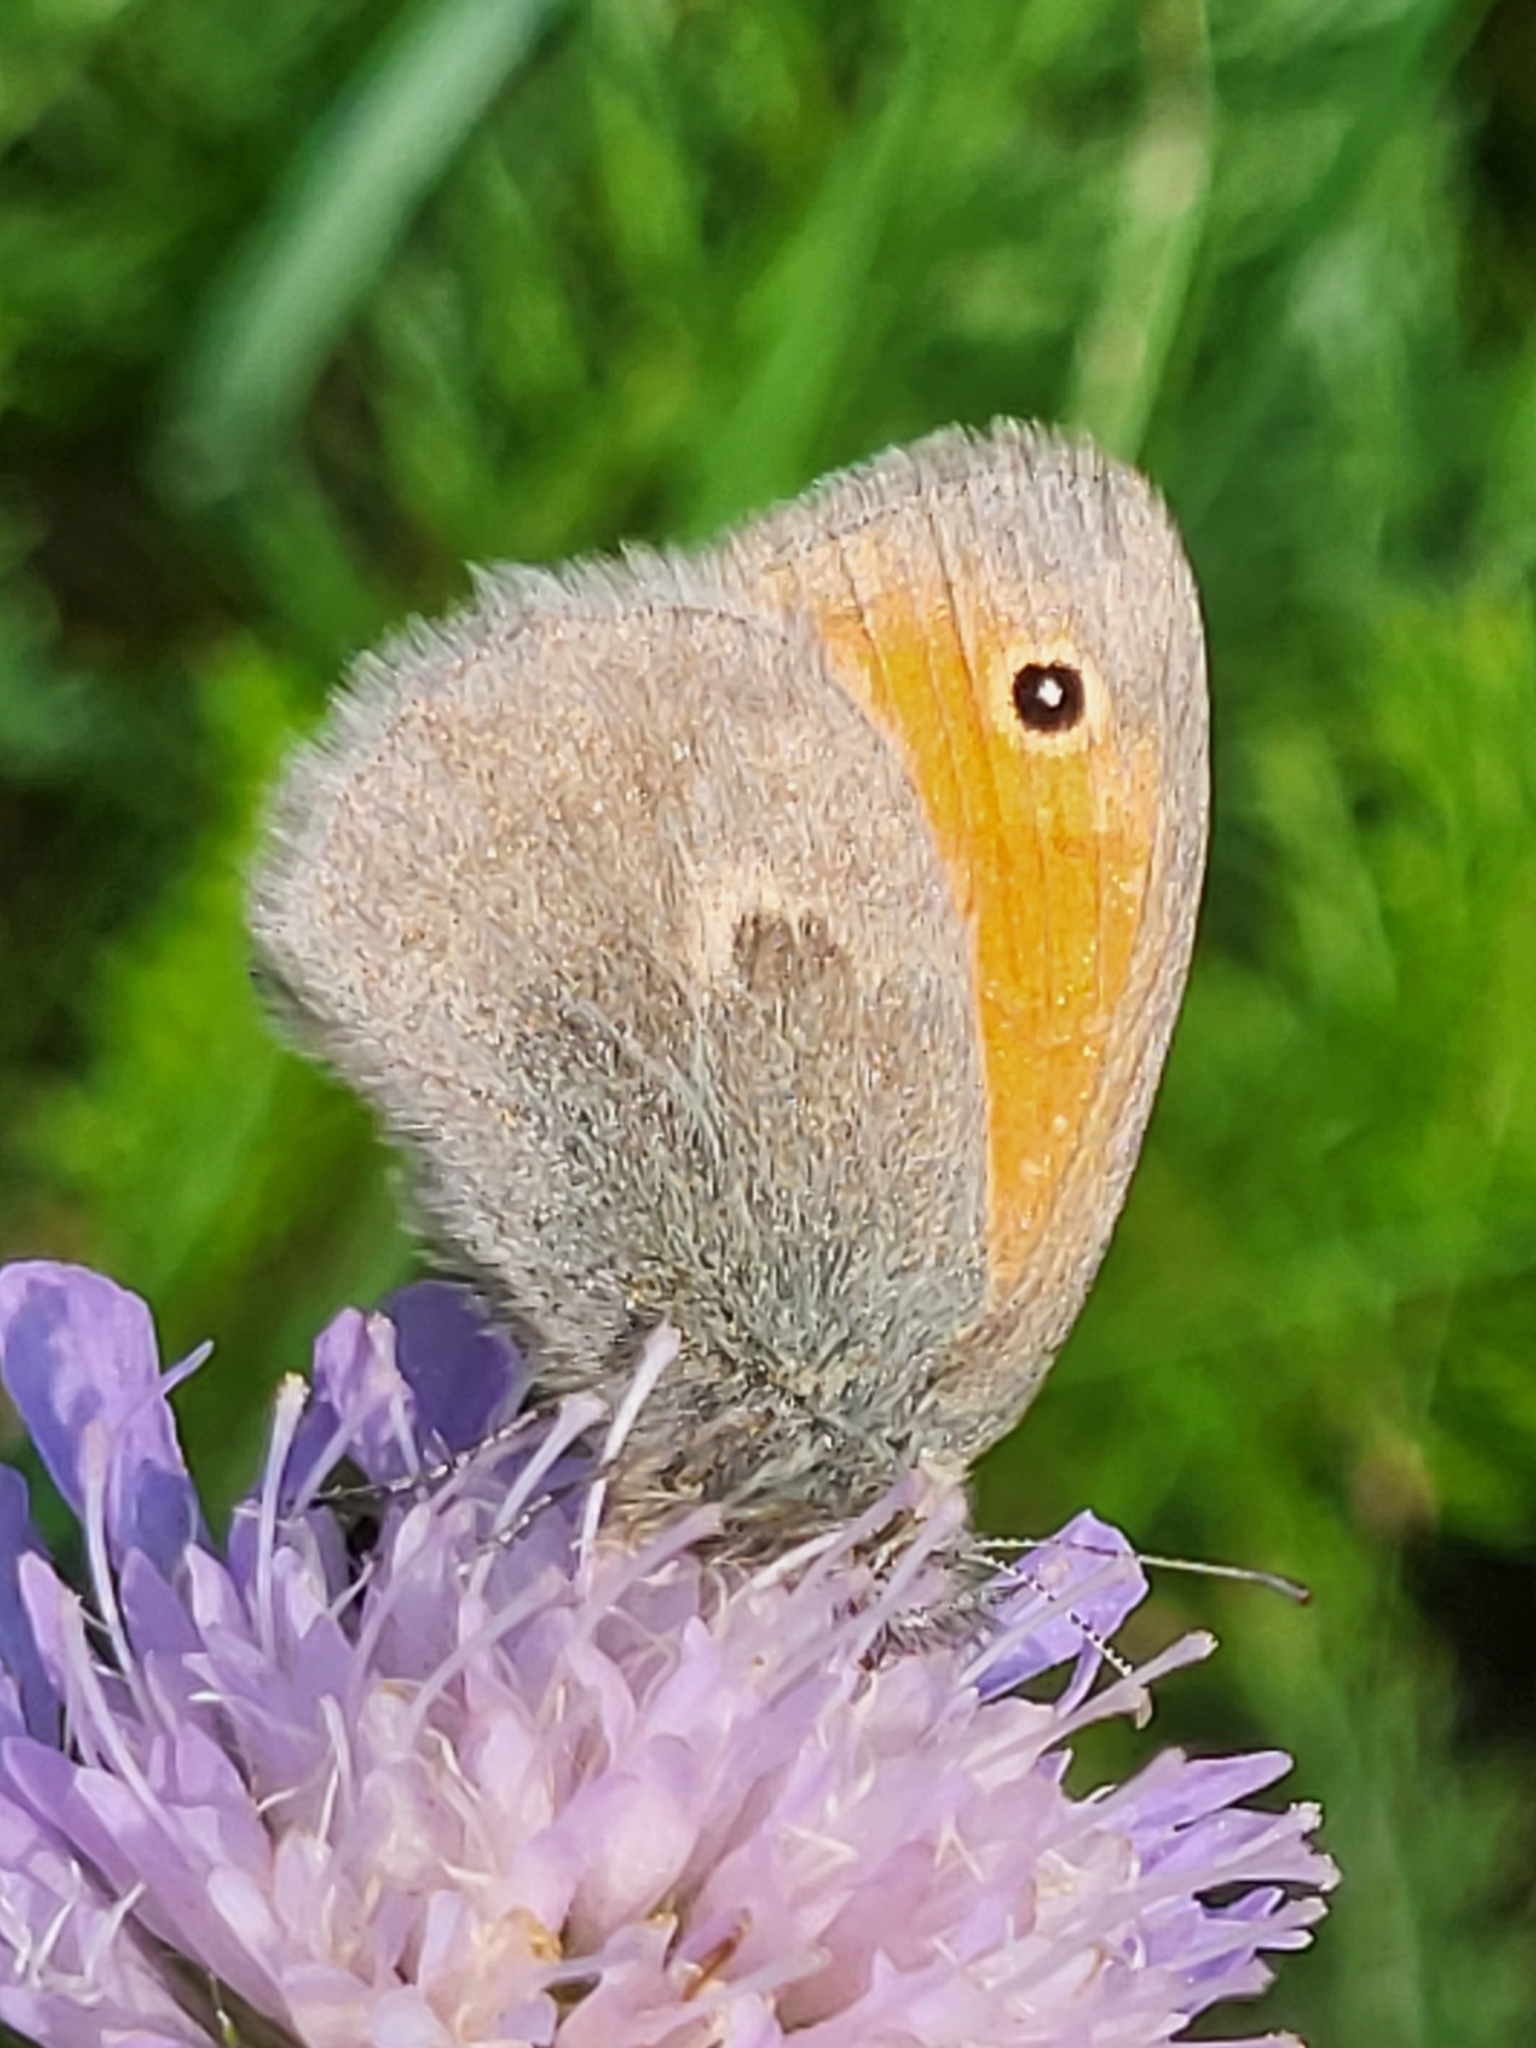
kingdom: Animalia
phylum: Arthropoda
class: Insecta
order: Lepidoptera
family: Nymphalidae
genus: Coenonympha
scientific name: Coenonympha pamphilus
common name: Small heath
